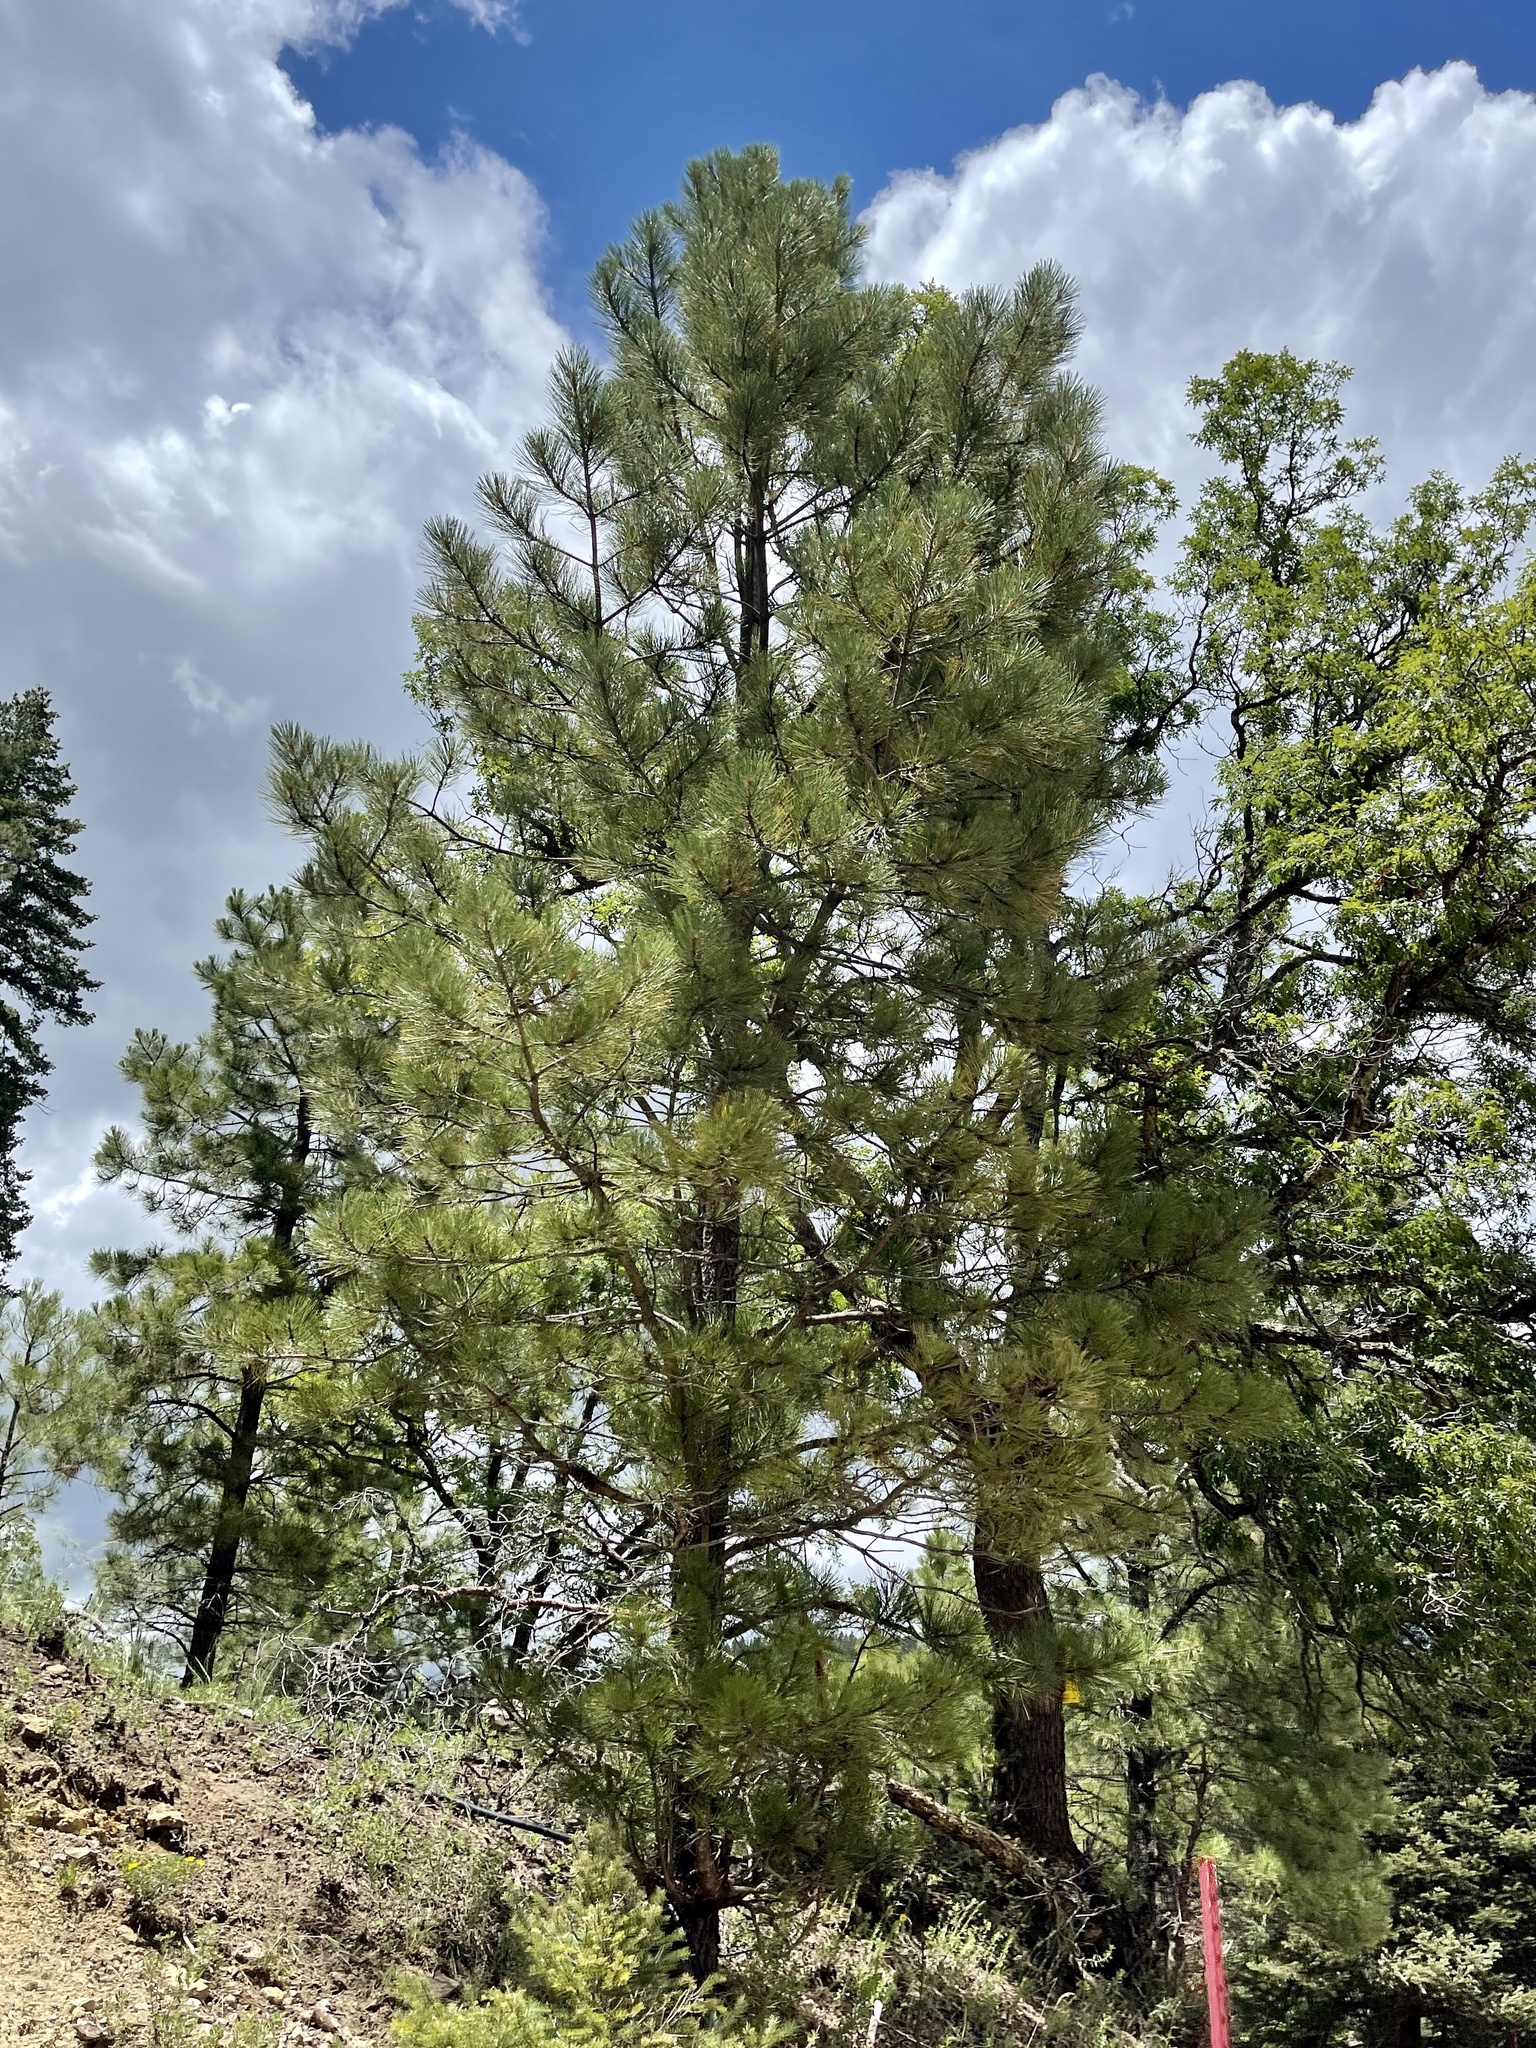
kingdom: Plantae
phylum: Tracheophyta
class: Pinopsida
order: Pinales
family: Pinaceae
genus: Pinus
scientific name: Pinus ponderosa
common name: Western yellow-pine
